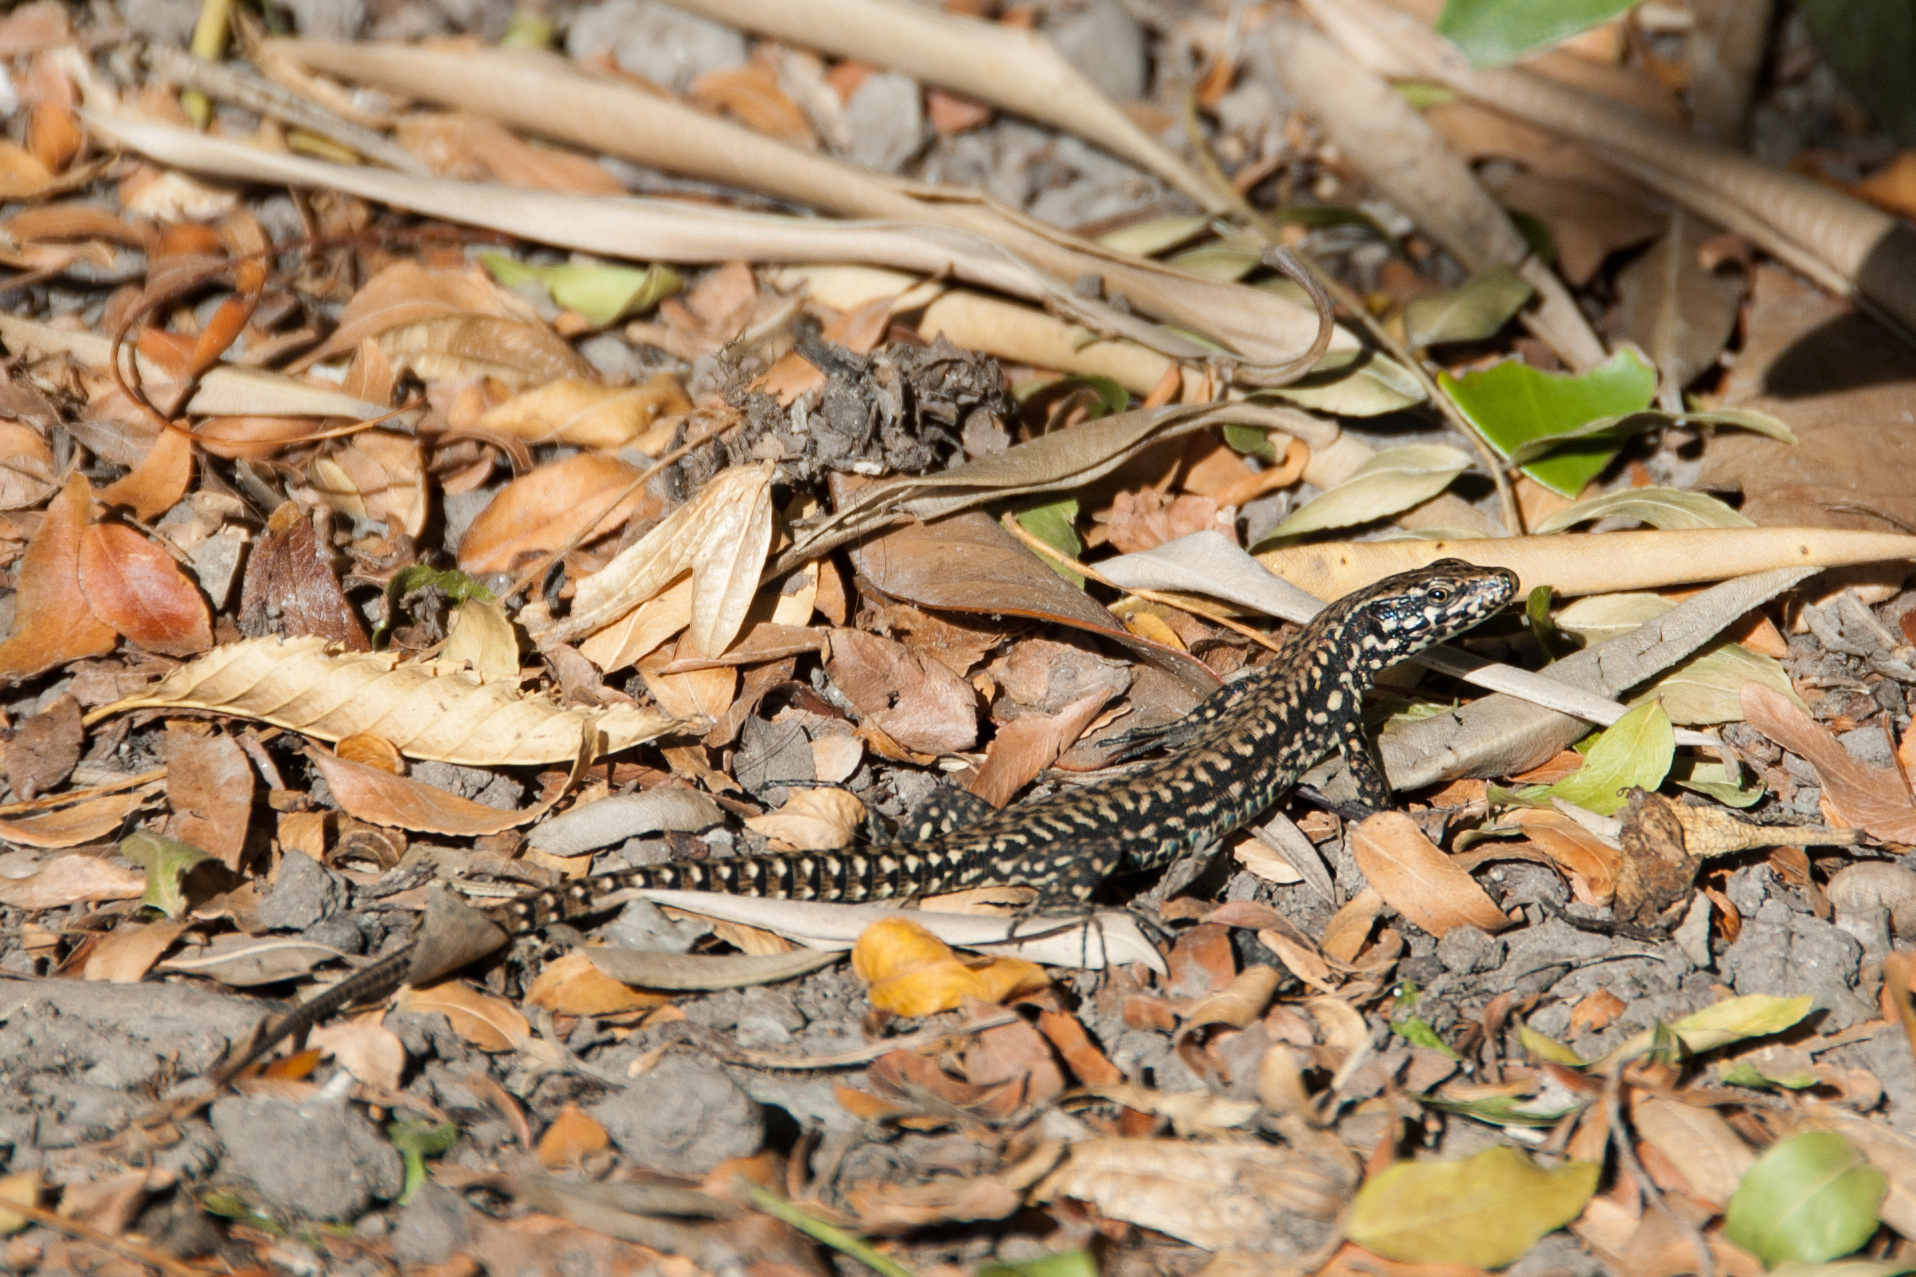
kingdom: Animalia
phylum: Chordata
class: Squamata
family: Lacertidae
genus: Podarcis
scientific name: Podarcis muralis
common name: Common wall lizard
